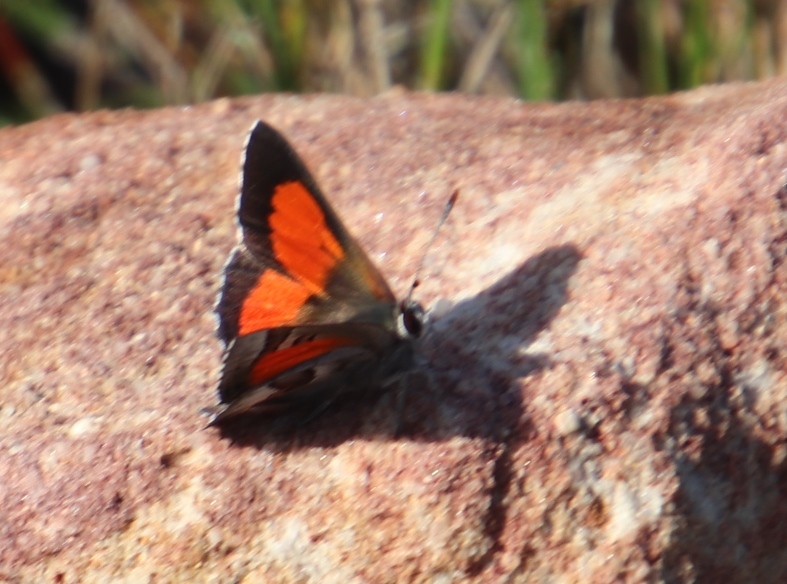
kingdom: Animalia
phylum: Arthropoda
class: Insecta
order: Lepidoptera
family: Lycaenidae
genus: Capys
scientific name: Capys alpheus
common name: Orange-banded protea butterfly
